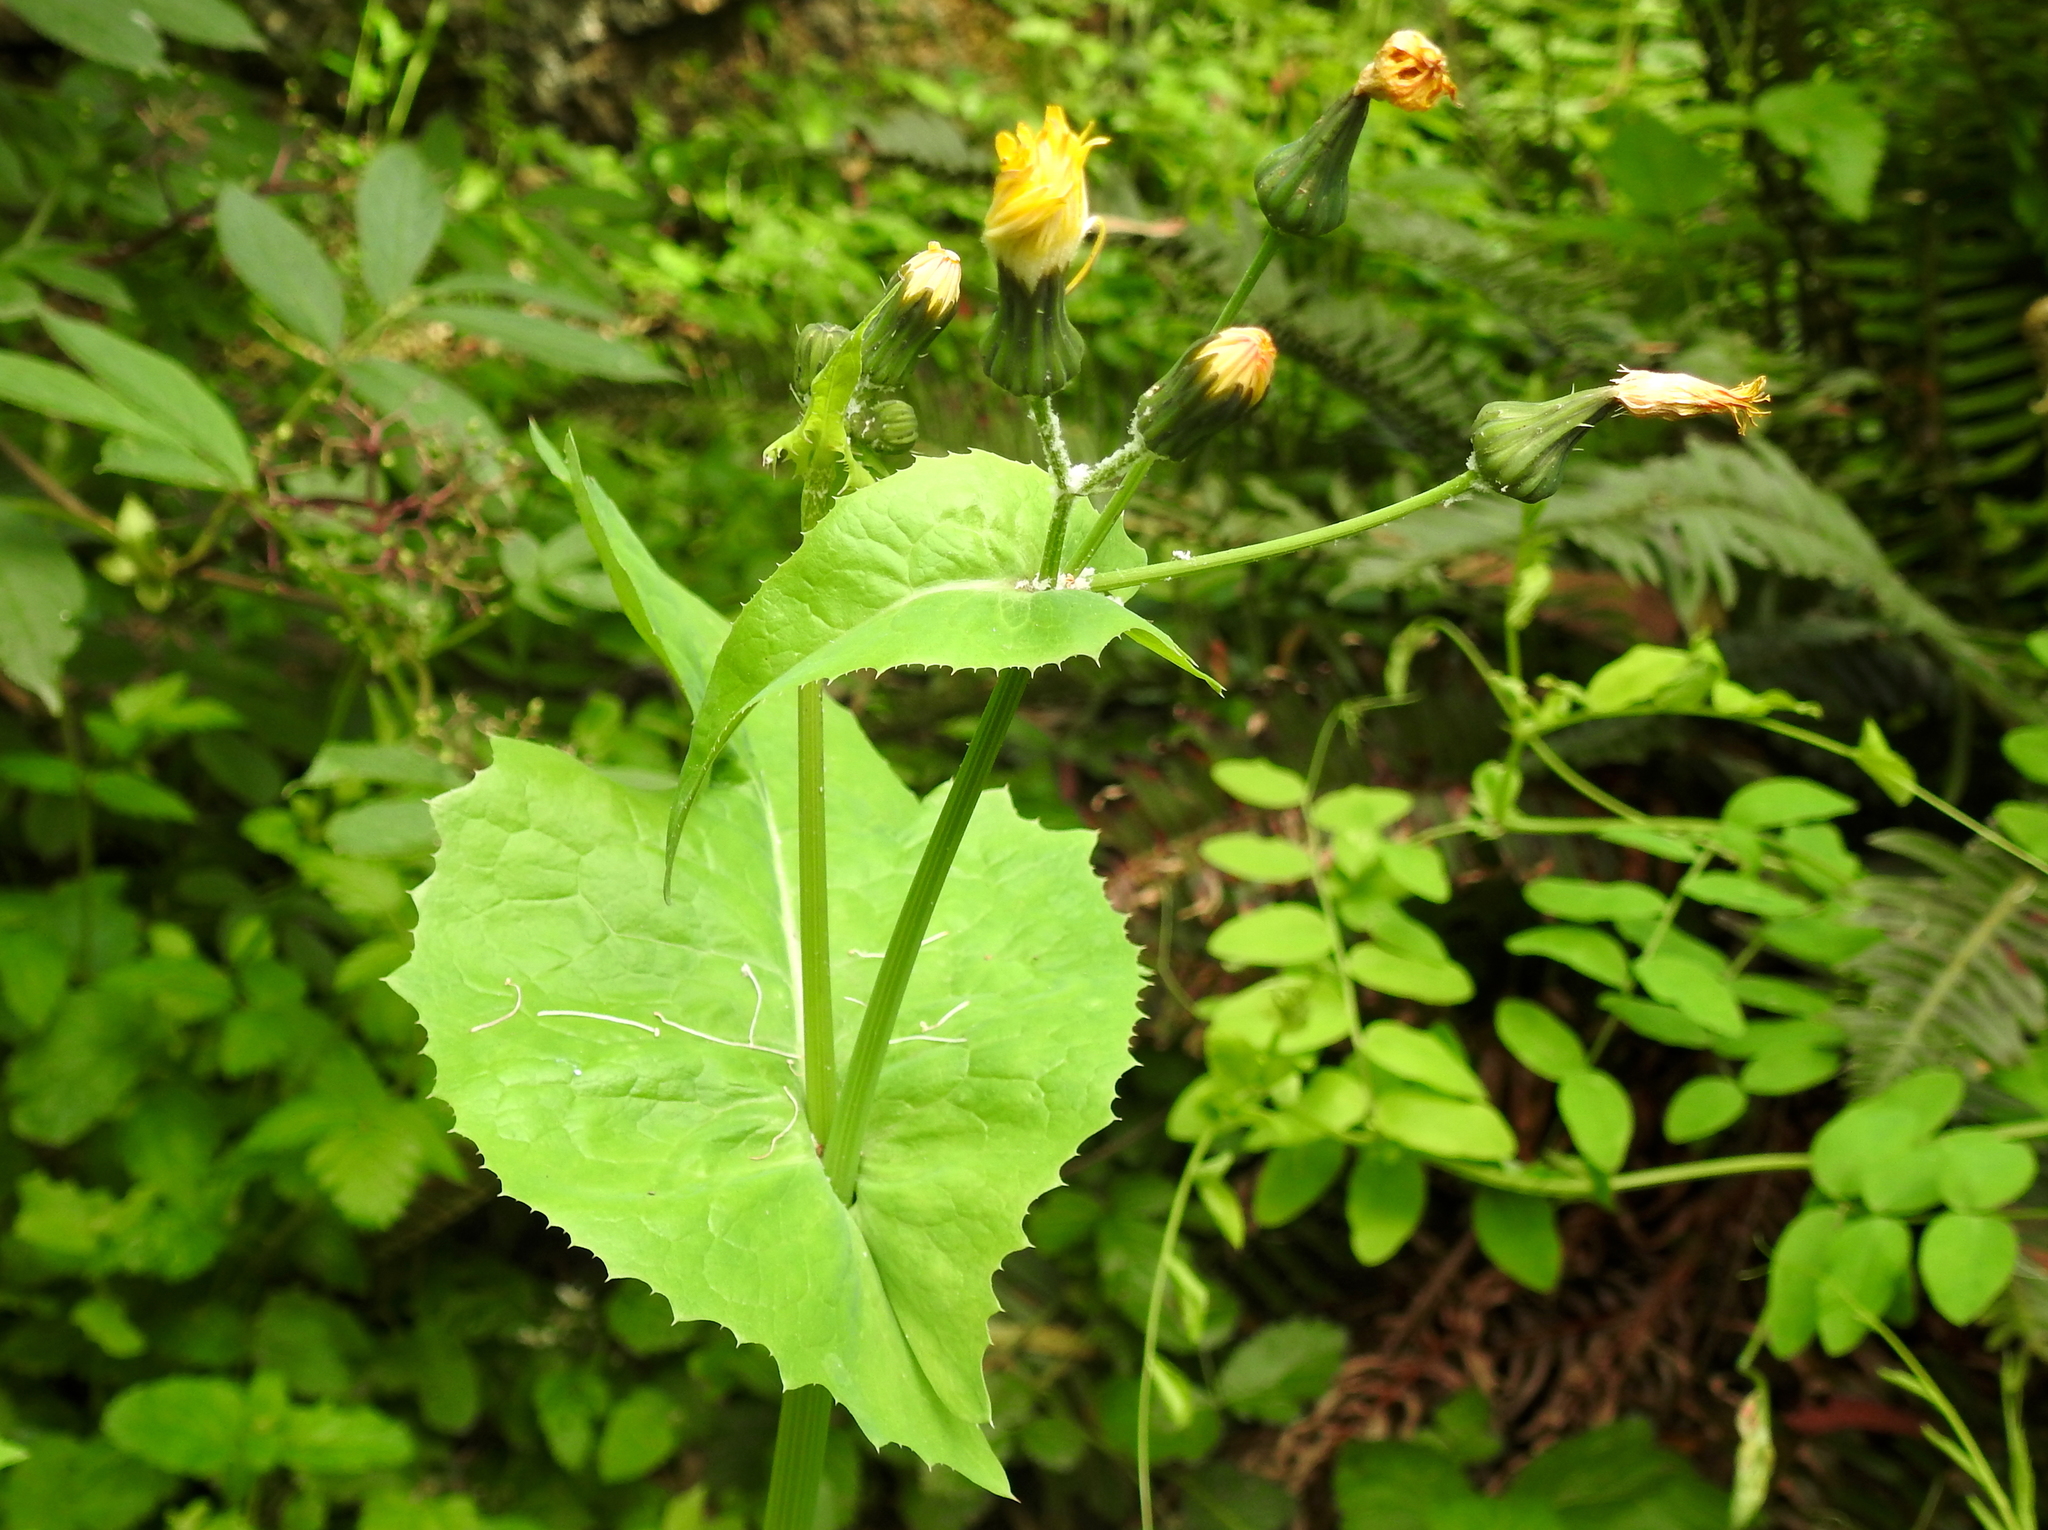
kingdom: Plantae
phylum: Tracheophyta
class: Magnoliopsida
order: Asterales
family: Asteraceae
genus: Sonchus
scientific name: Sonchus oleraceus
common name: Common sowthistle
